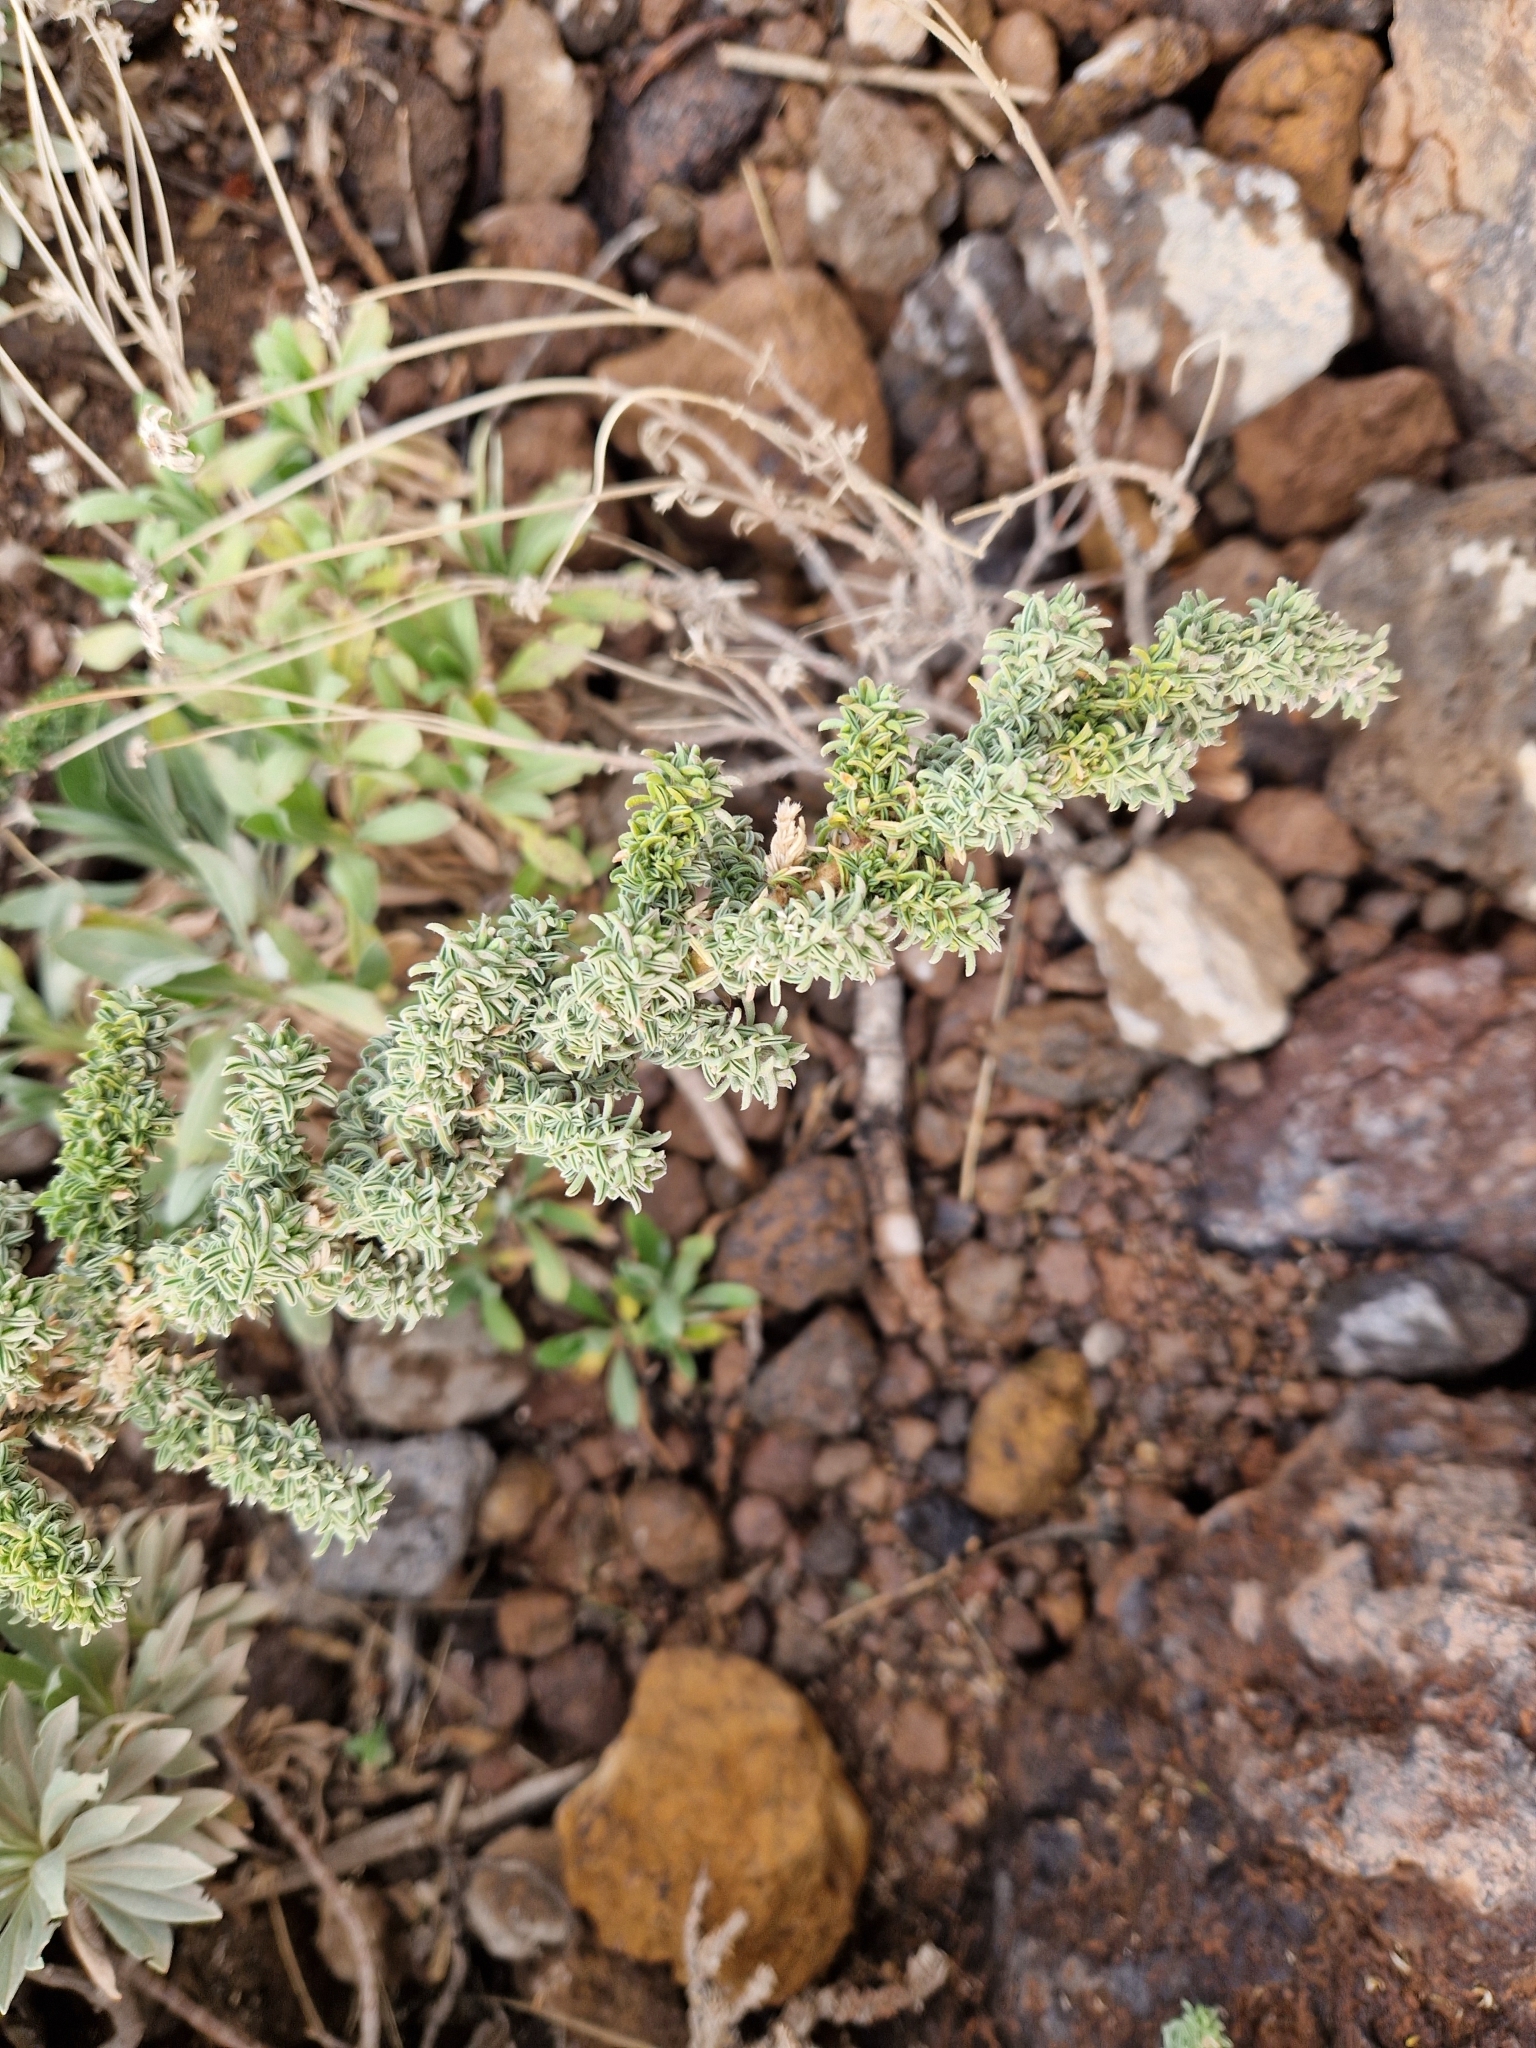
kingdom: Plantae
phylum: Tracheophyta
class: Magnoliopsida
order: Fabales
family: Fabaceae
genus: Adenocarpus
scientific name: Adenocarpus viscosus
